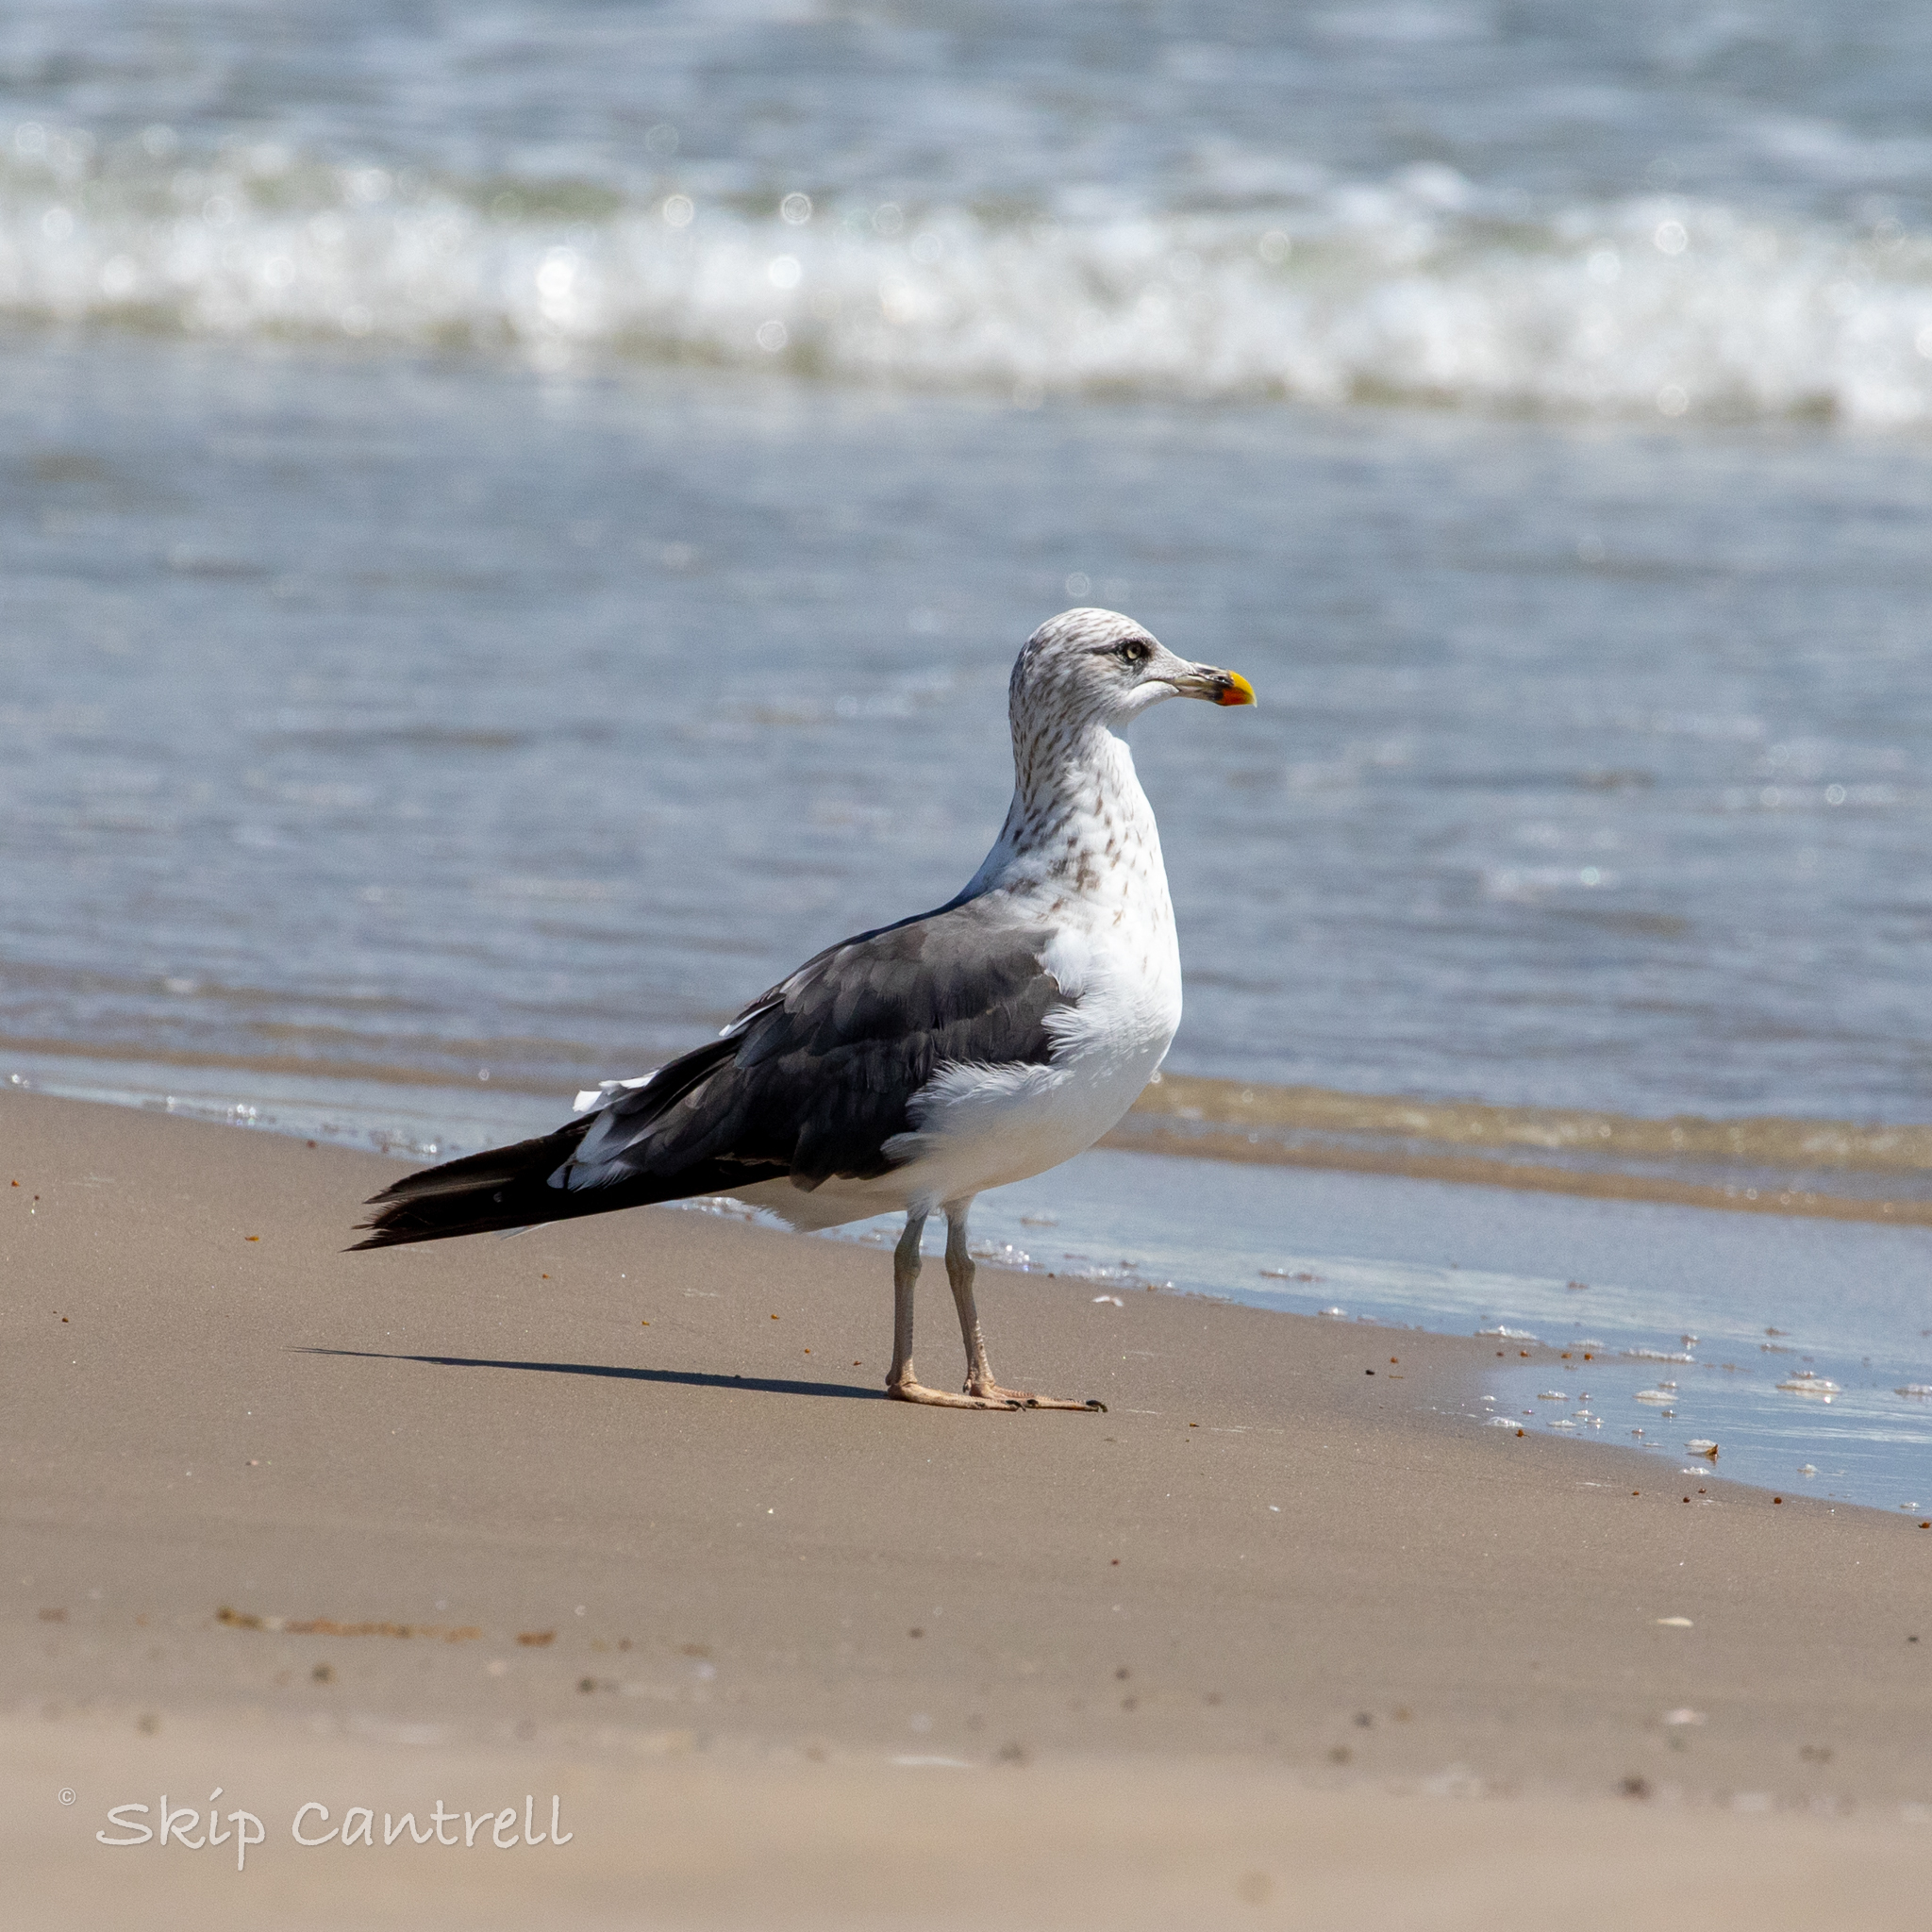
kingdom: Animalia
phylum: Chordata
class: Aves
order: Charadriiformes
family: Laridae
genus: Larus
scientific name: Larus fuscus
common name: Lesser black-backed gull
